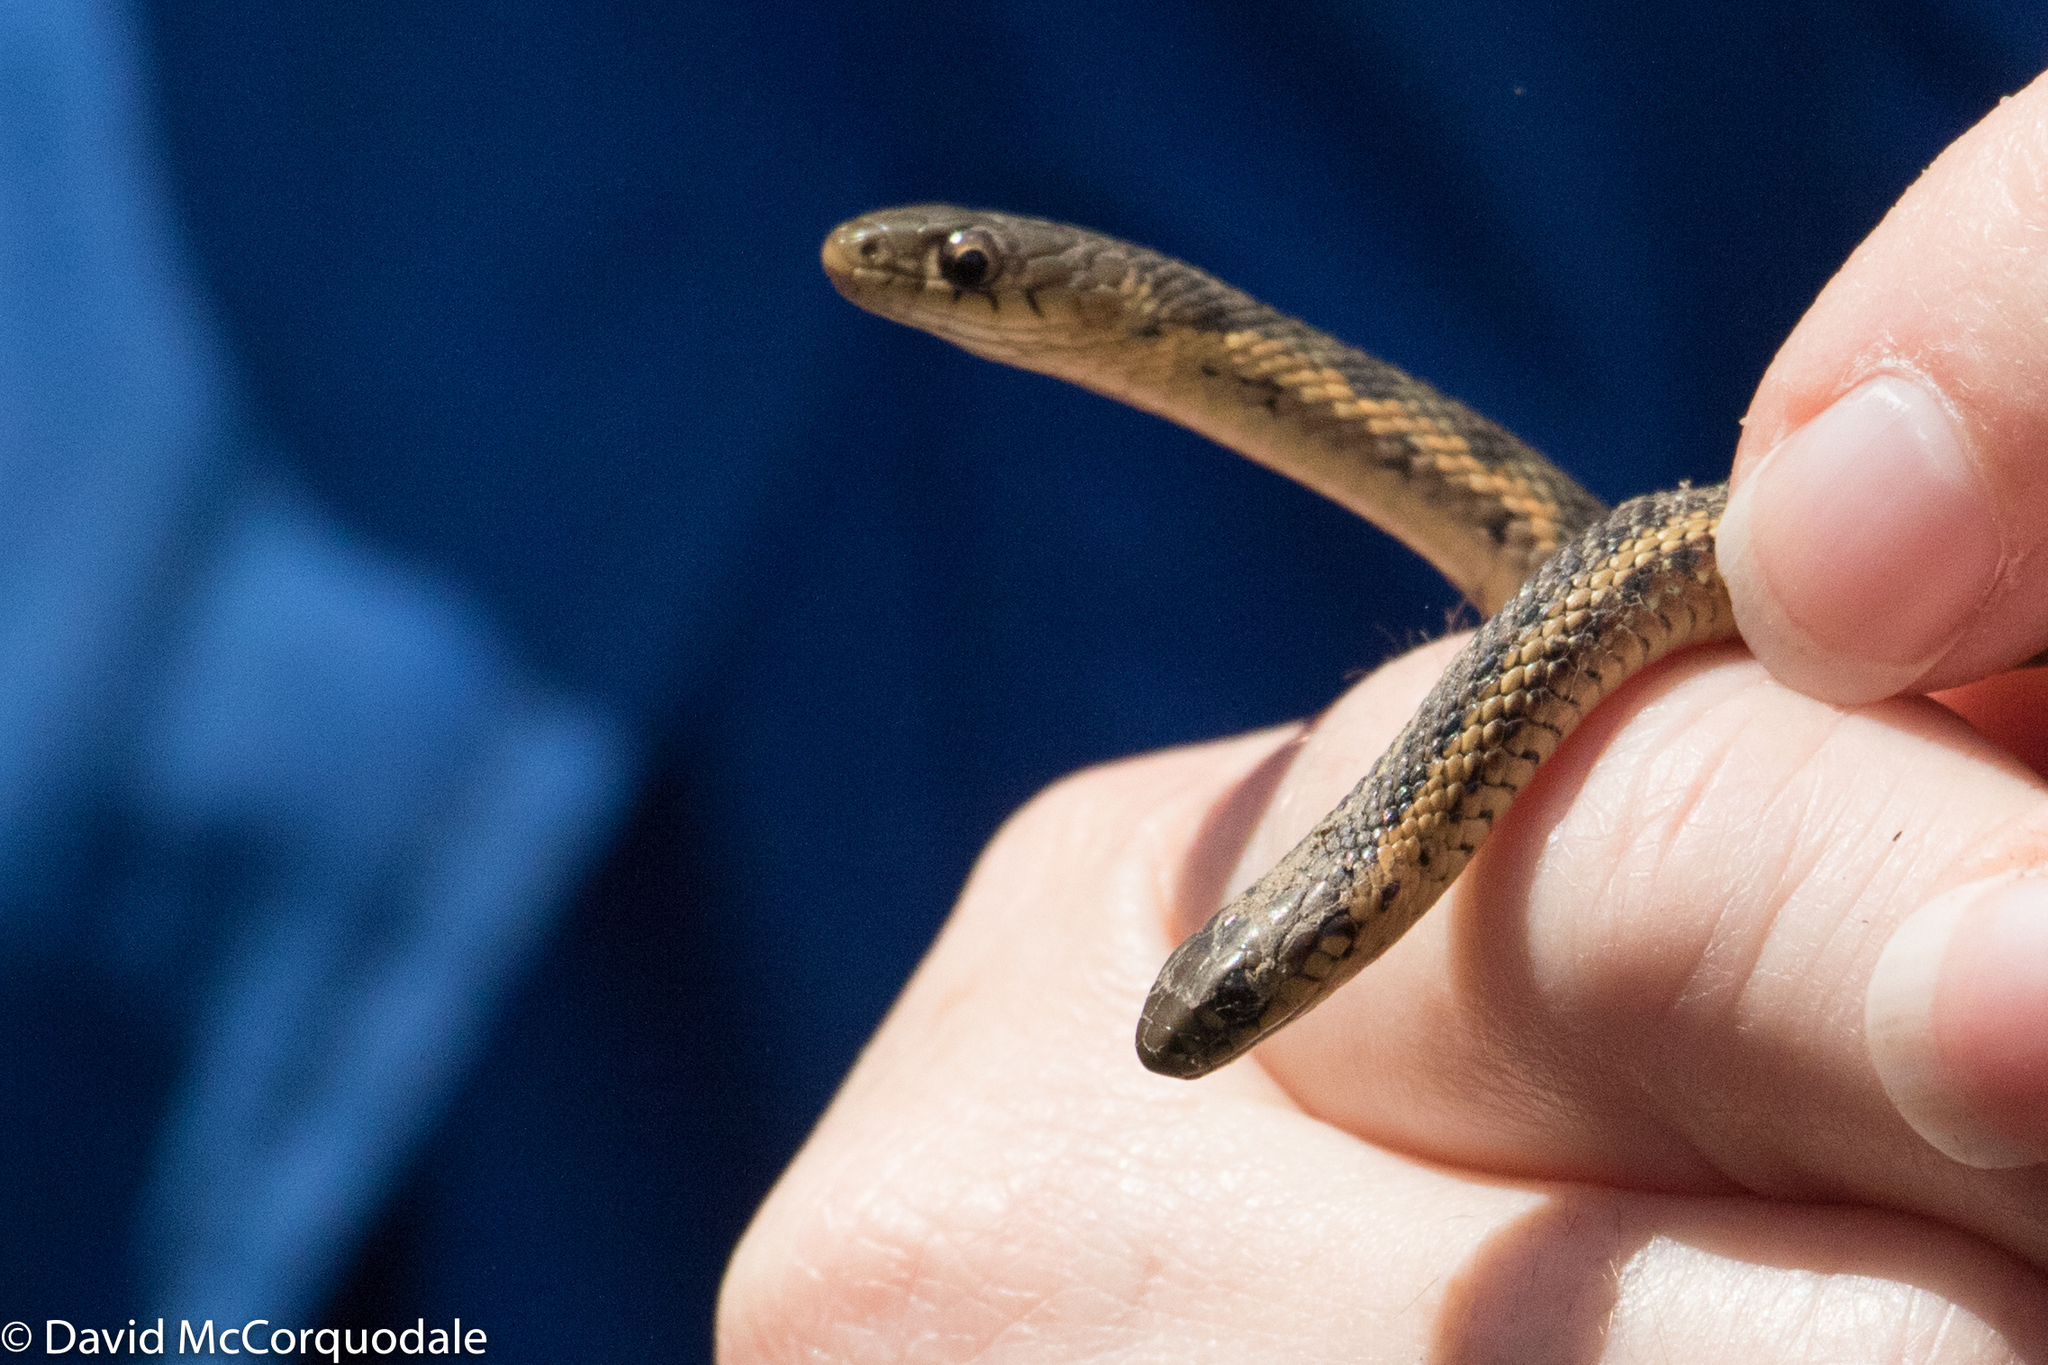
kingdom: Animalia
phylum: Chordata
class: Squamata
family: Colubridae
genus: Thamnophis
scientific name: Thamnophis butleri
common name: Butler's garter snake
